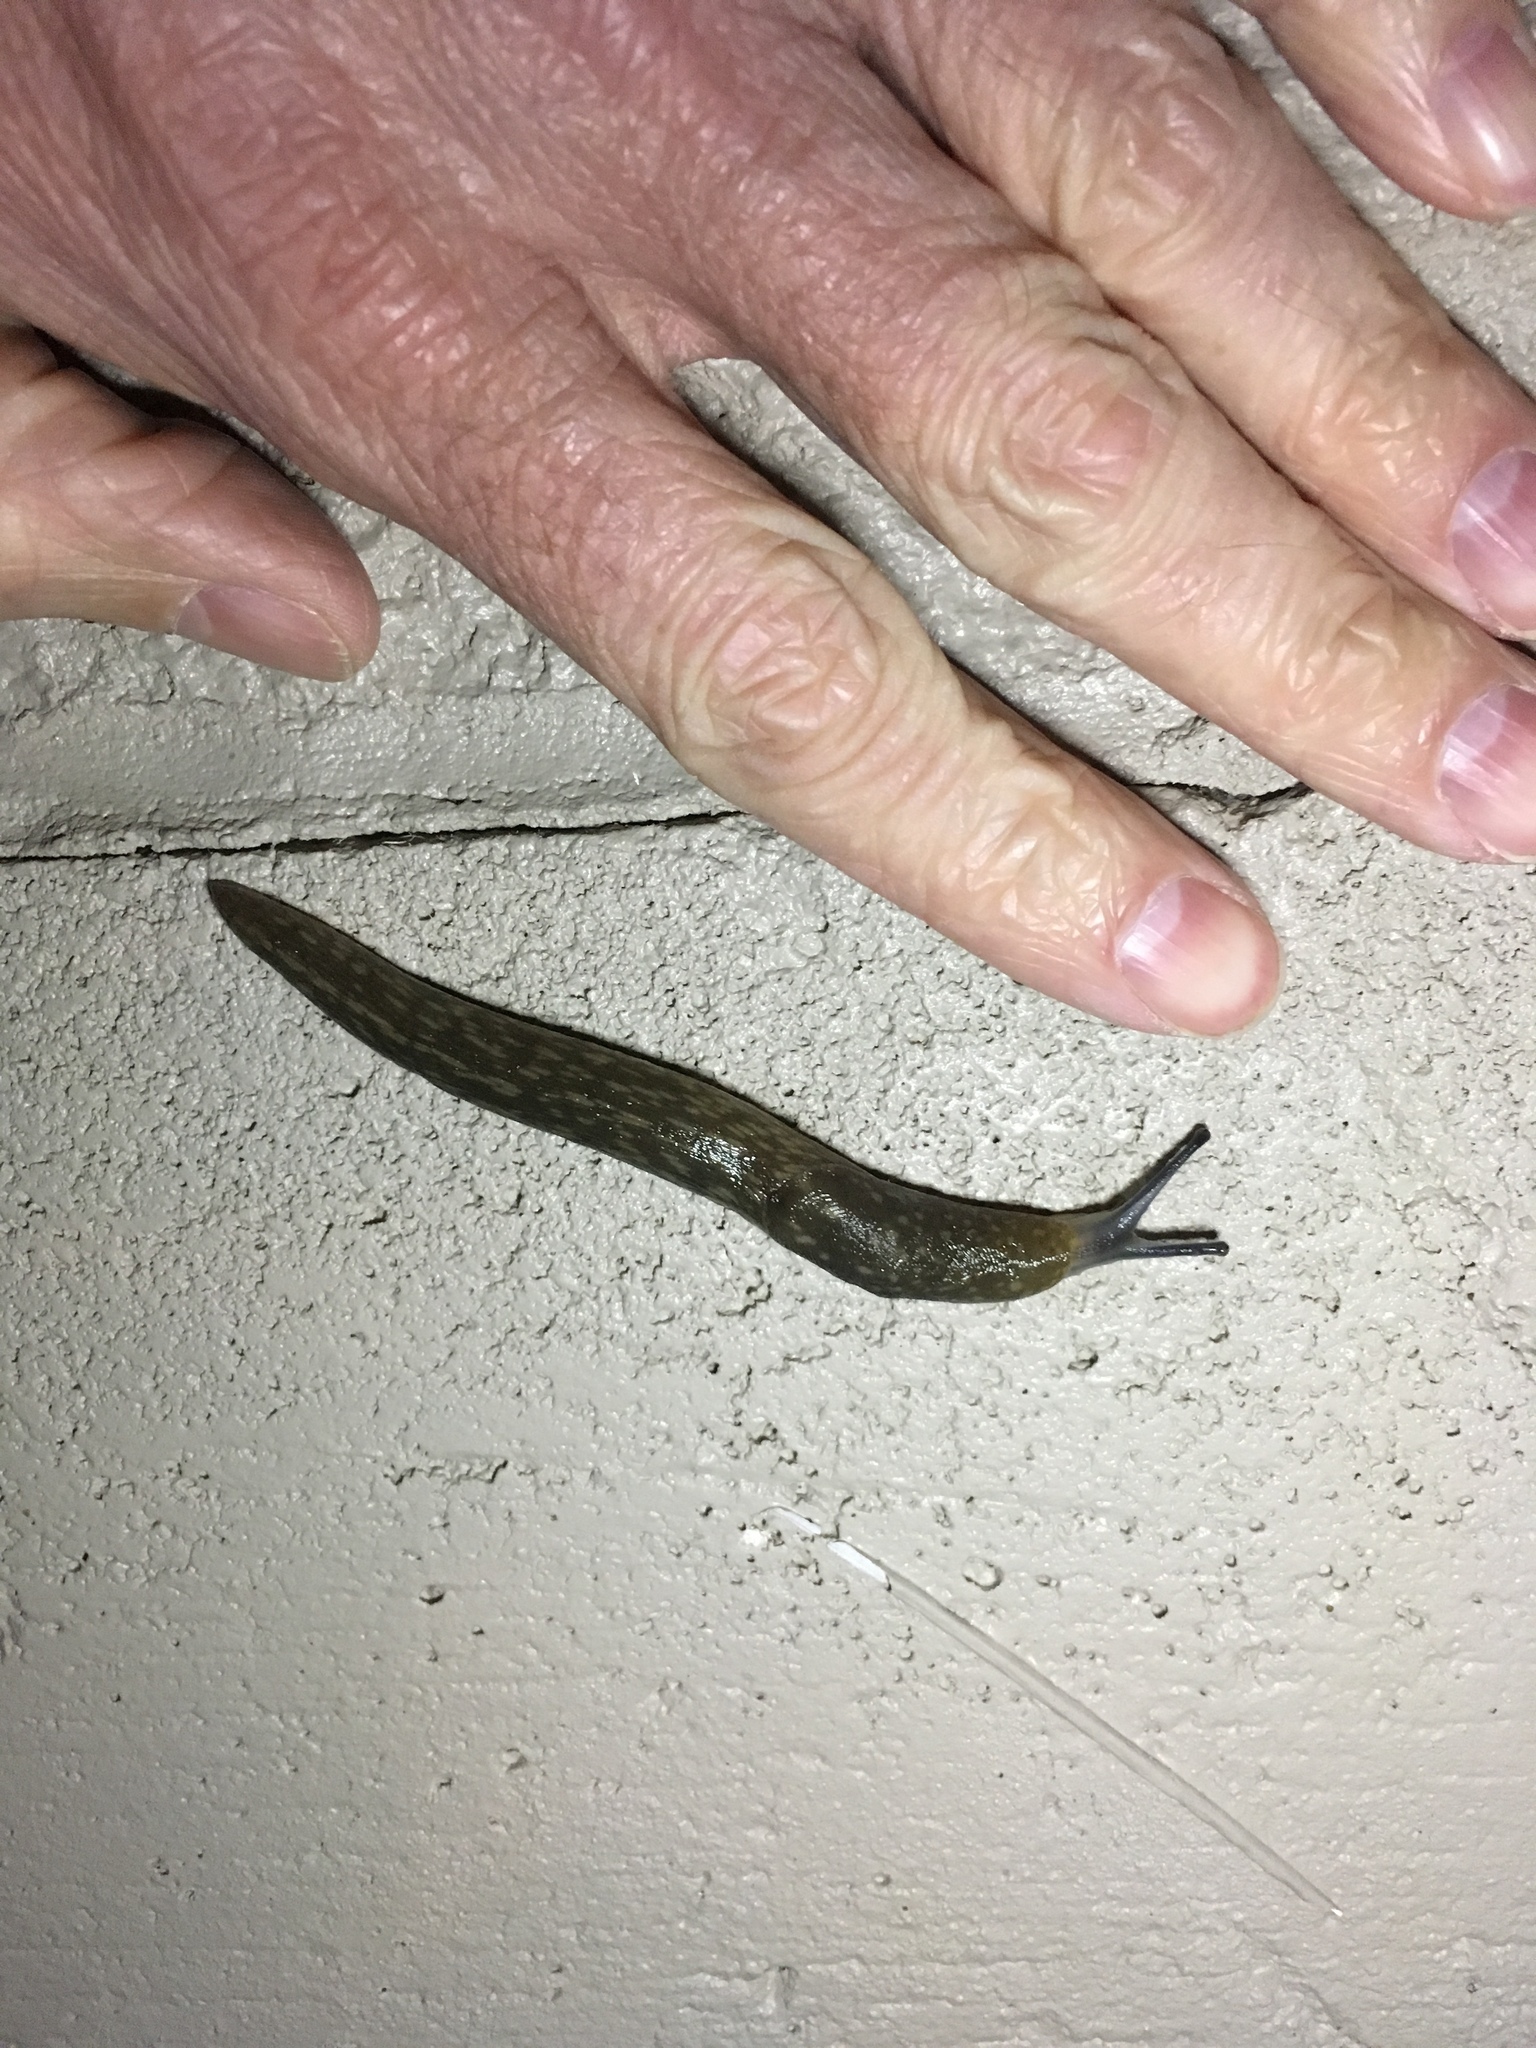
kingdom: Animalia
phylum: Mollusca
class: Gastropoda
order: Stylommatophora
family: Limacidae
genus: Limacus
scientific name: Limacus flavus
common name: Yellow gardenslug
